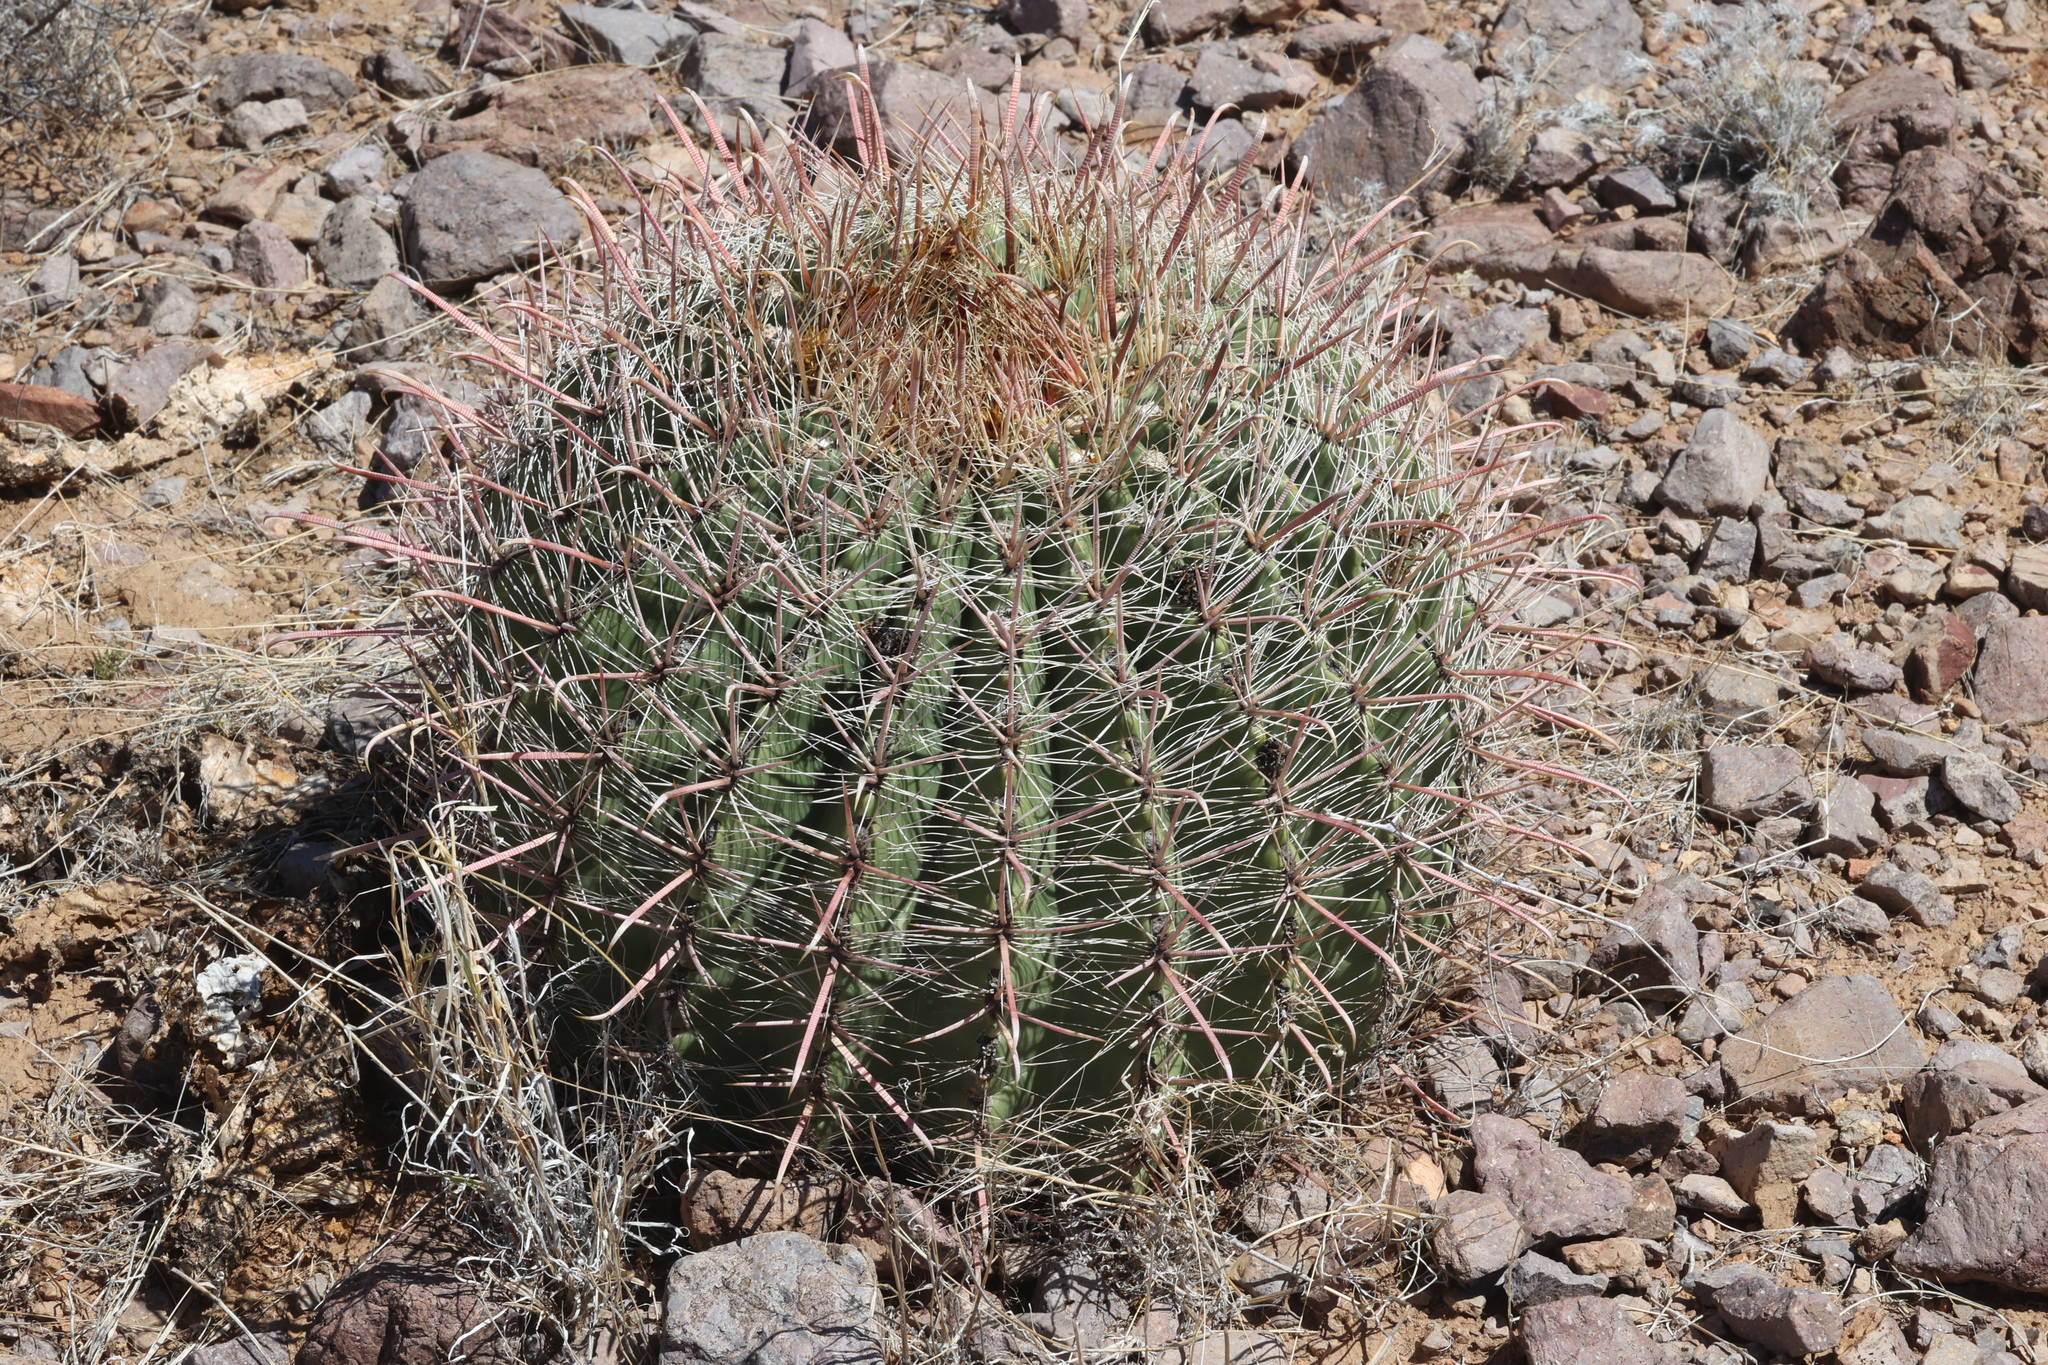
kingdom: Plantae
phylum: Tracheophyta
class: Magnoliopsida
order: Caryophyllales
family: Cactaceae
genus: Ferocactus
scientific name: Ferocactus wislizeni
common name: Candy barrel cactus
